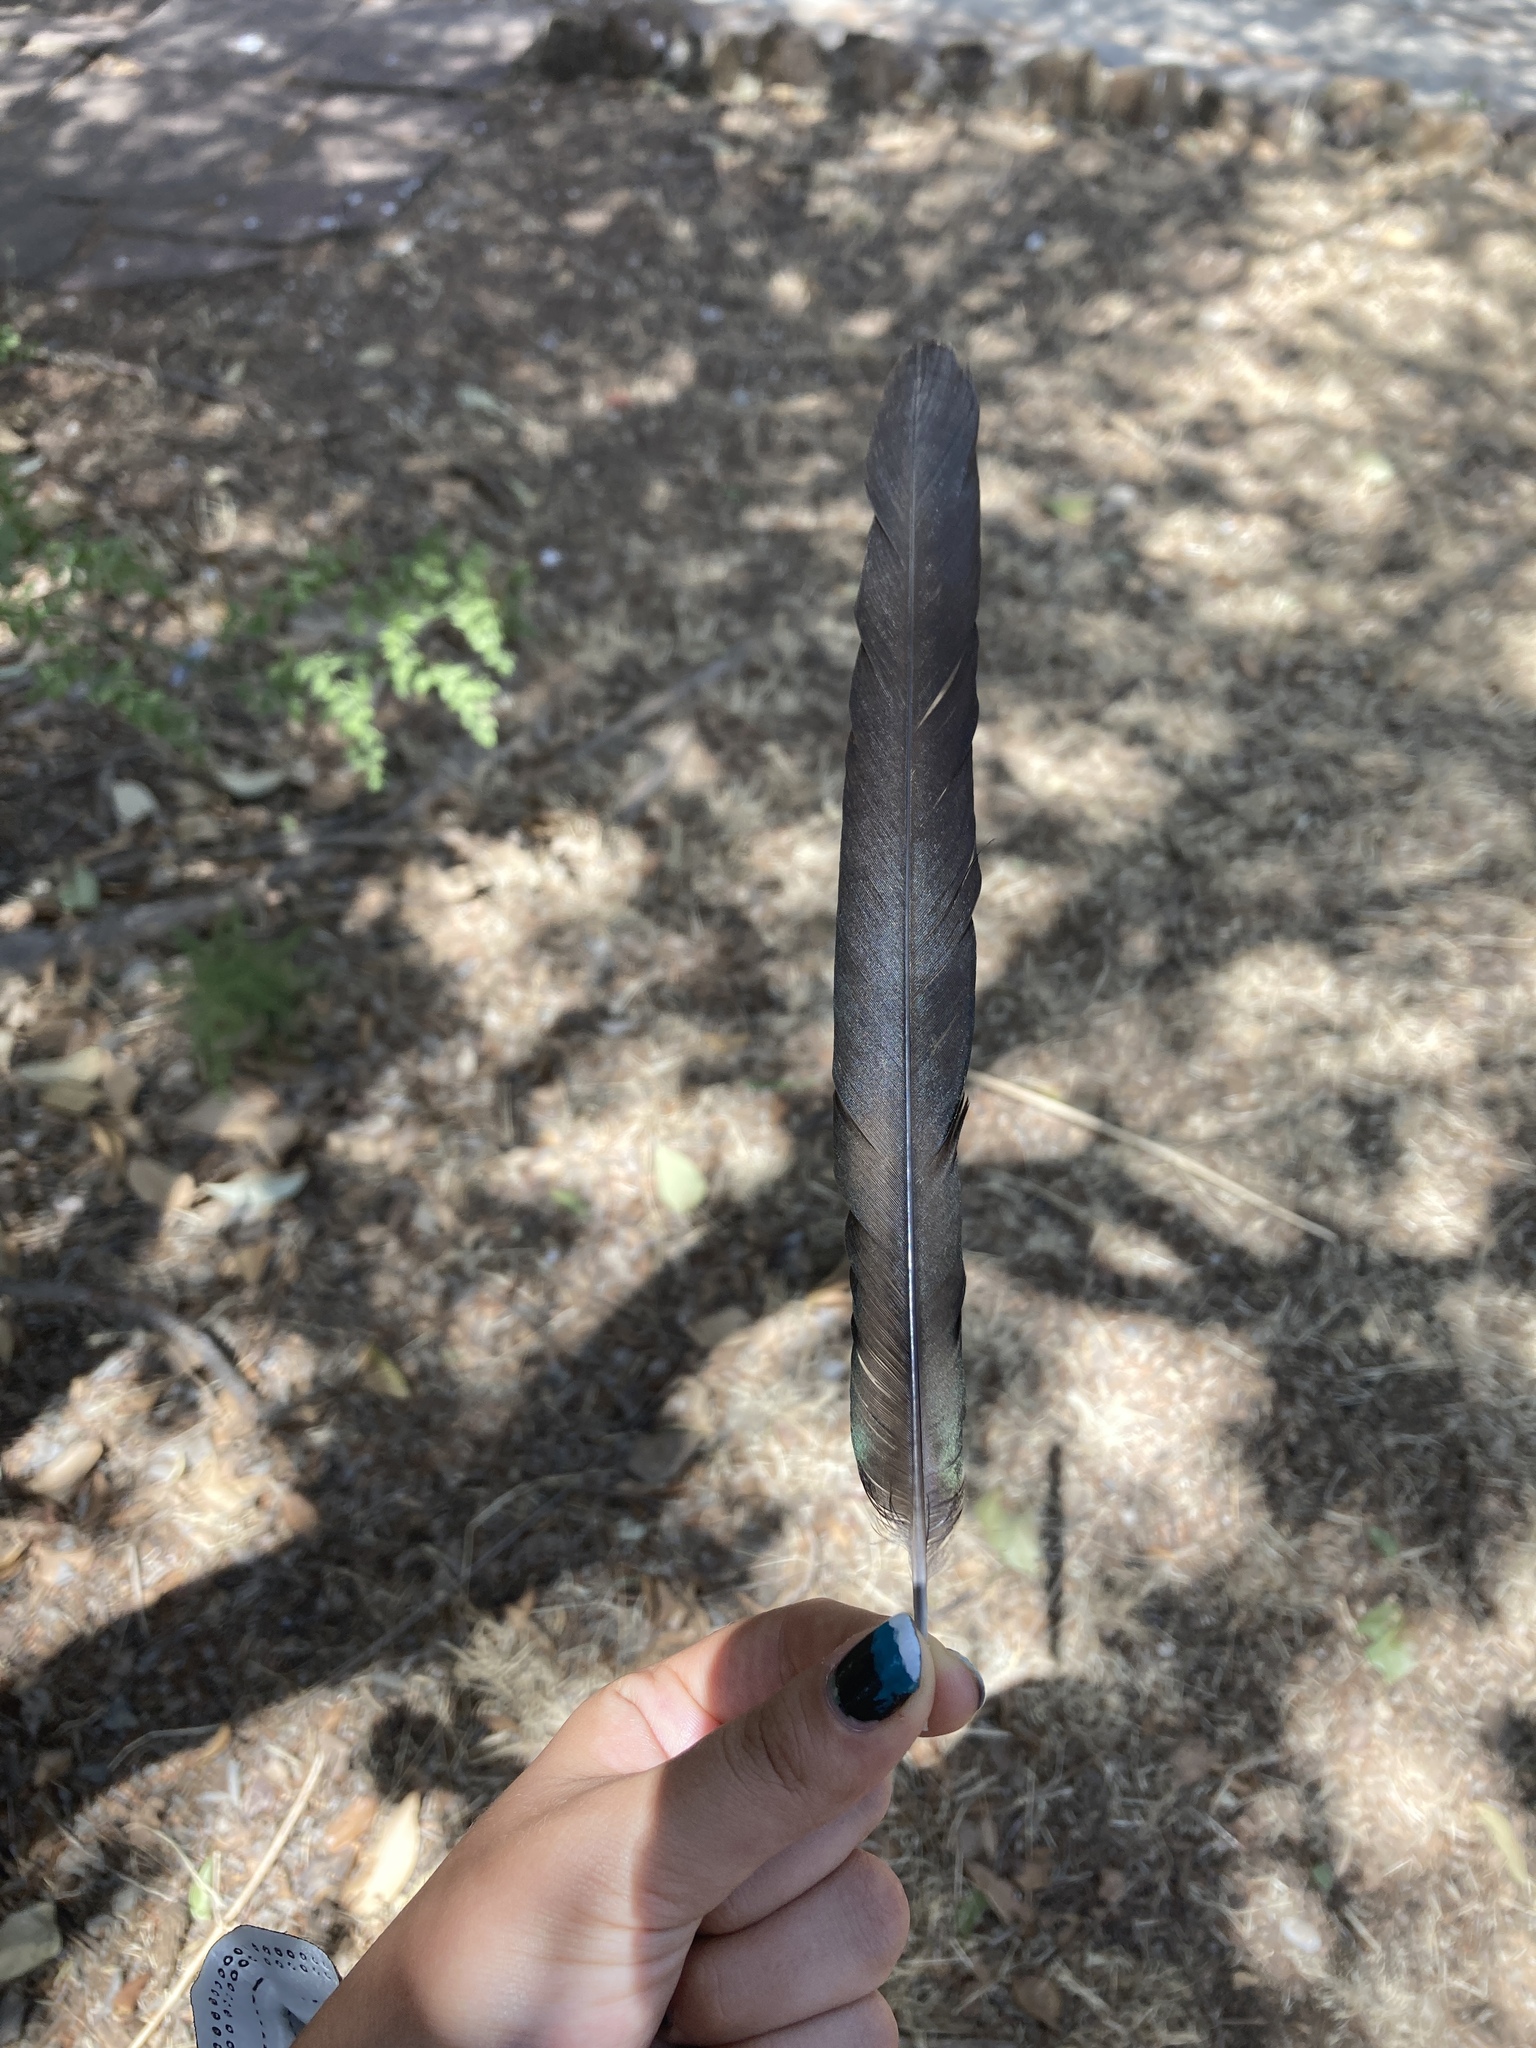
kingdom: Animalia
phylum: Chordata
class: Aves
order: Passeriformes
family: Corvidae
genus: Pica
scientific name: Pica pica
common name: Eurasian magpie
